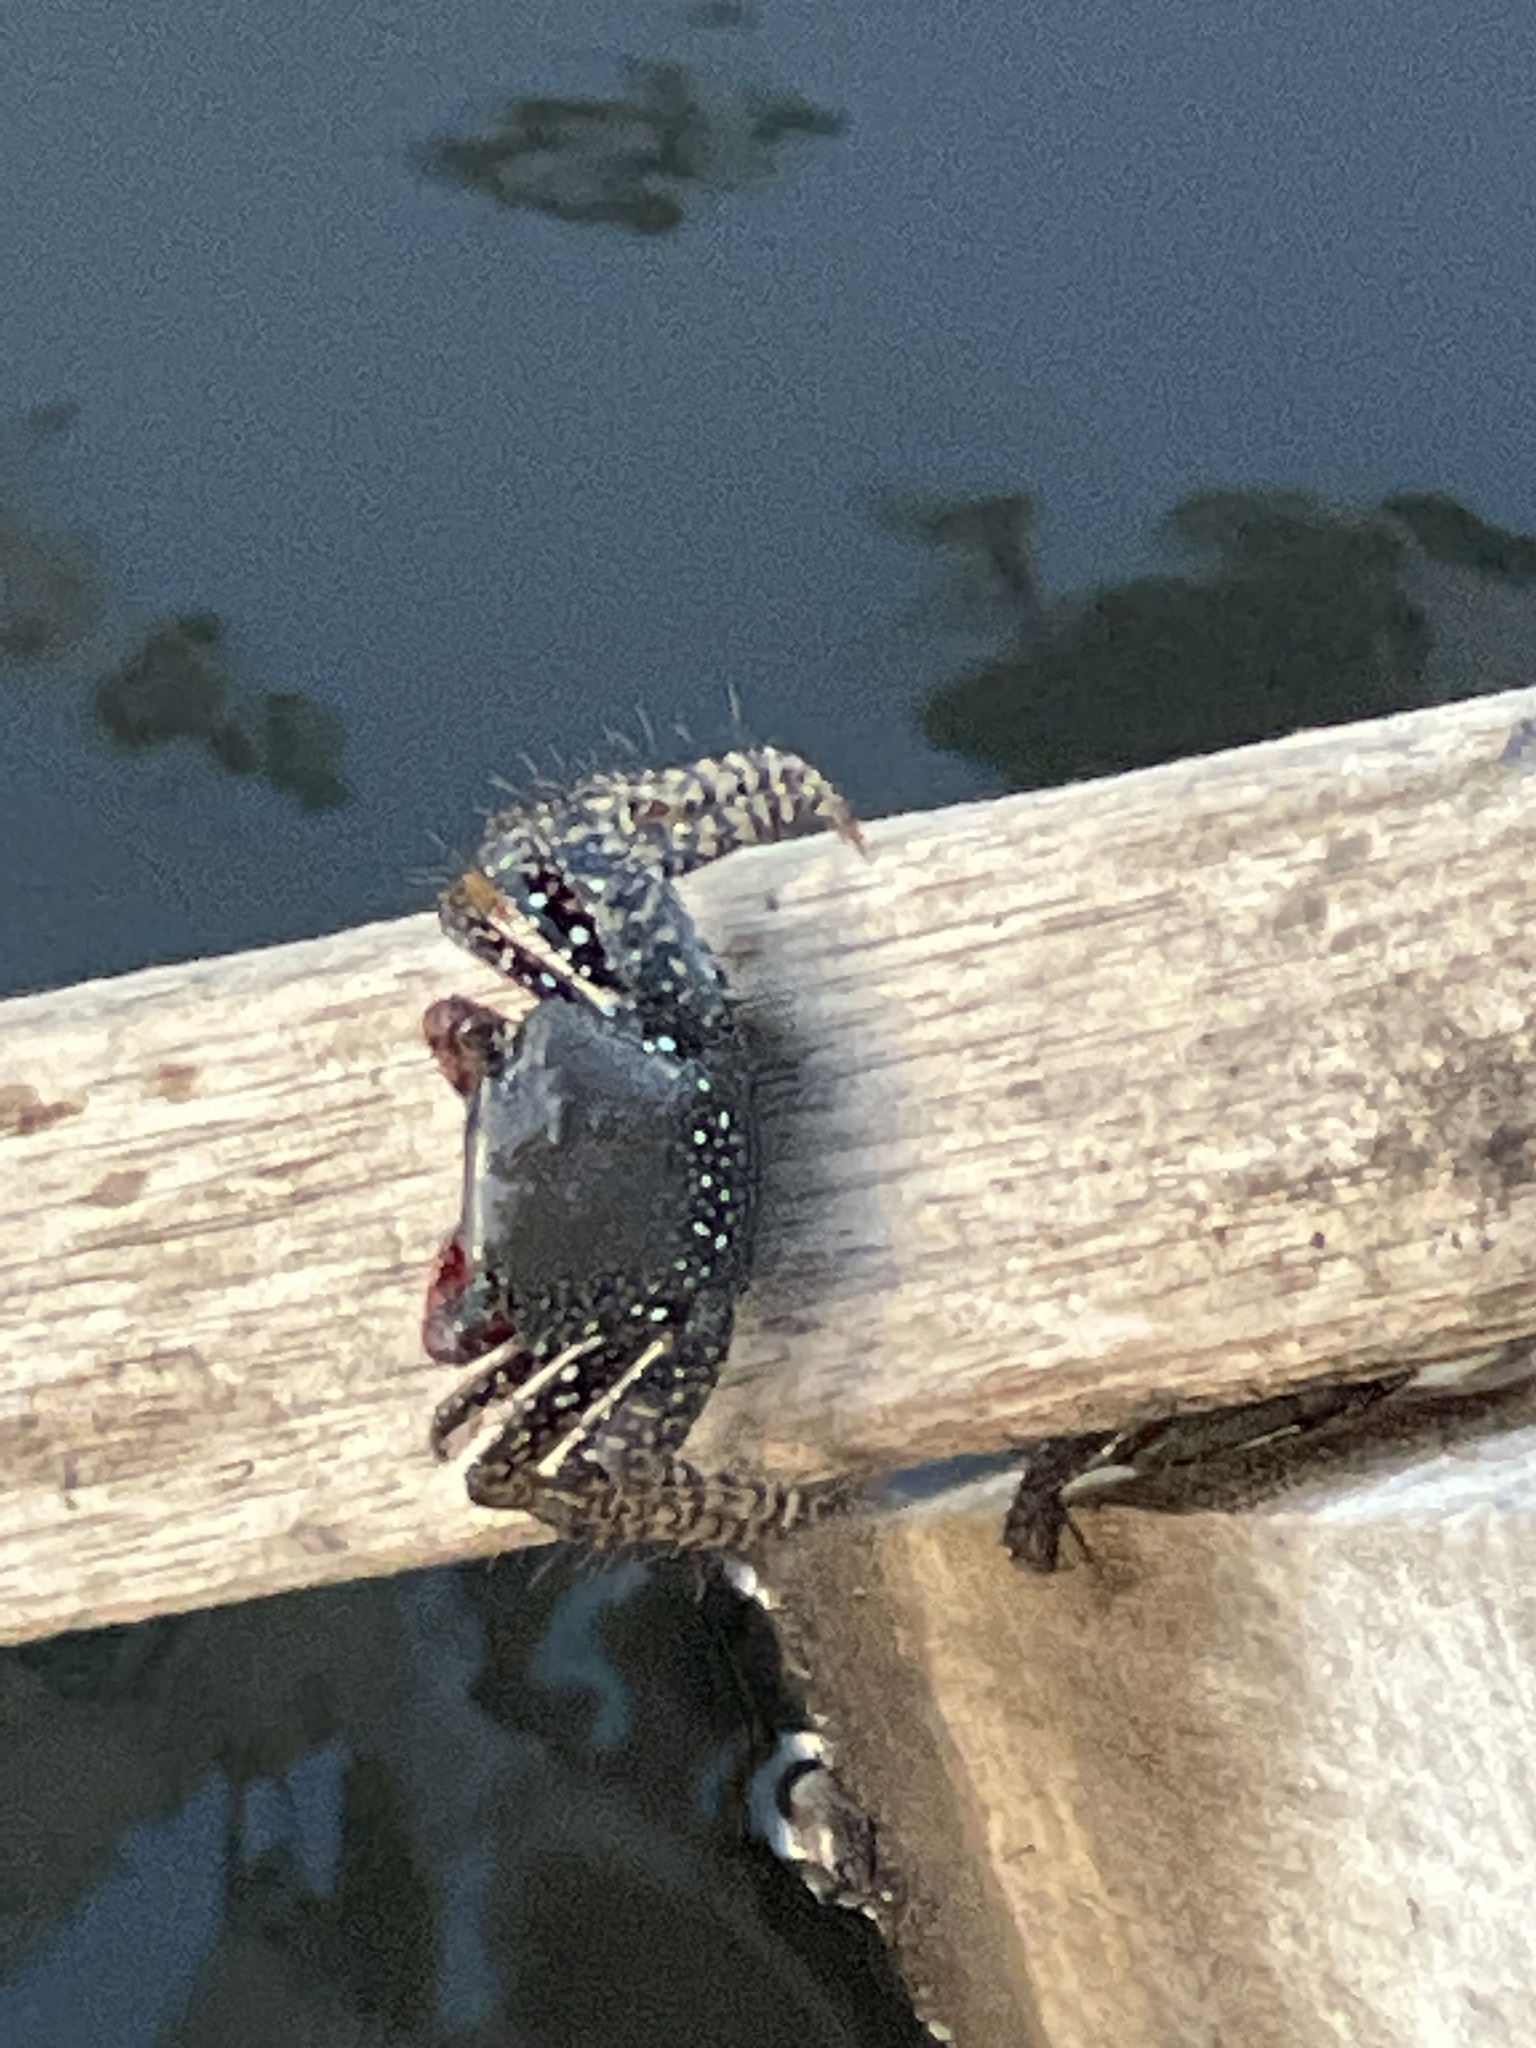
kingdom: Animalia
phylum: Arthropoda
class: Malacostraca
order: Decapoda
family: Grapsidae
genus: Goniopsis
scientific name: Goniopsis pulchra
